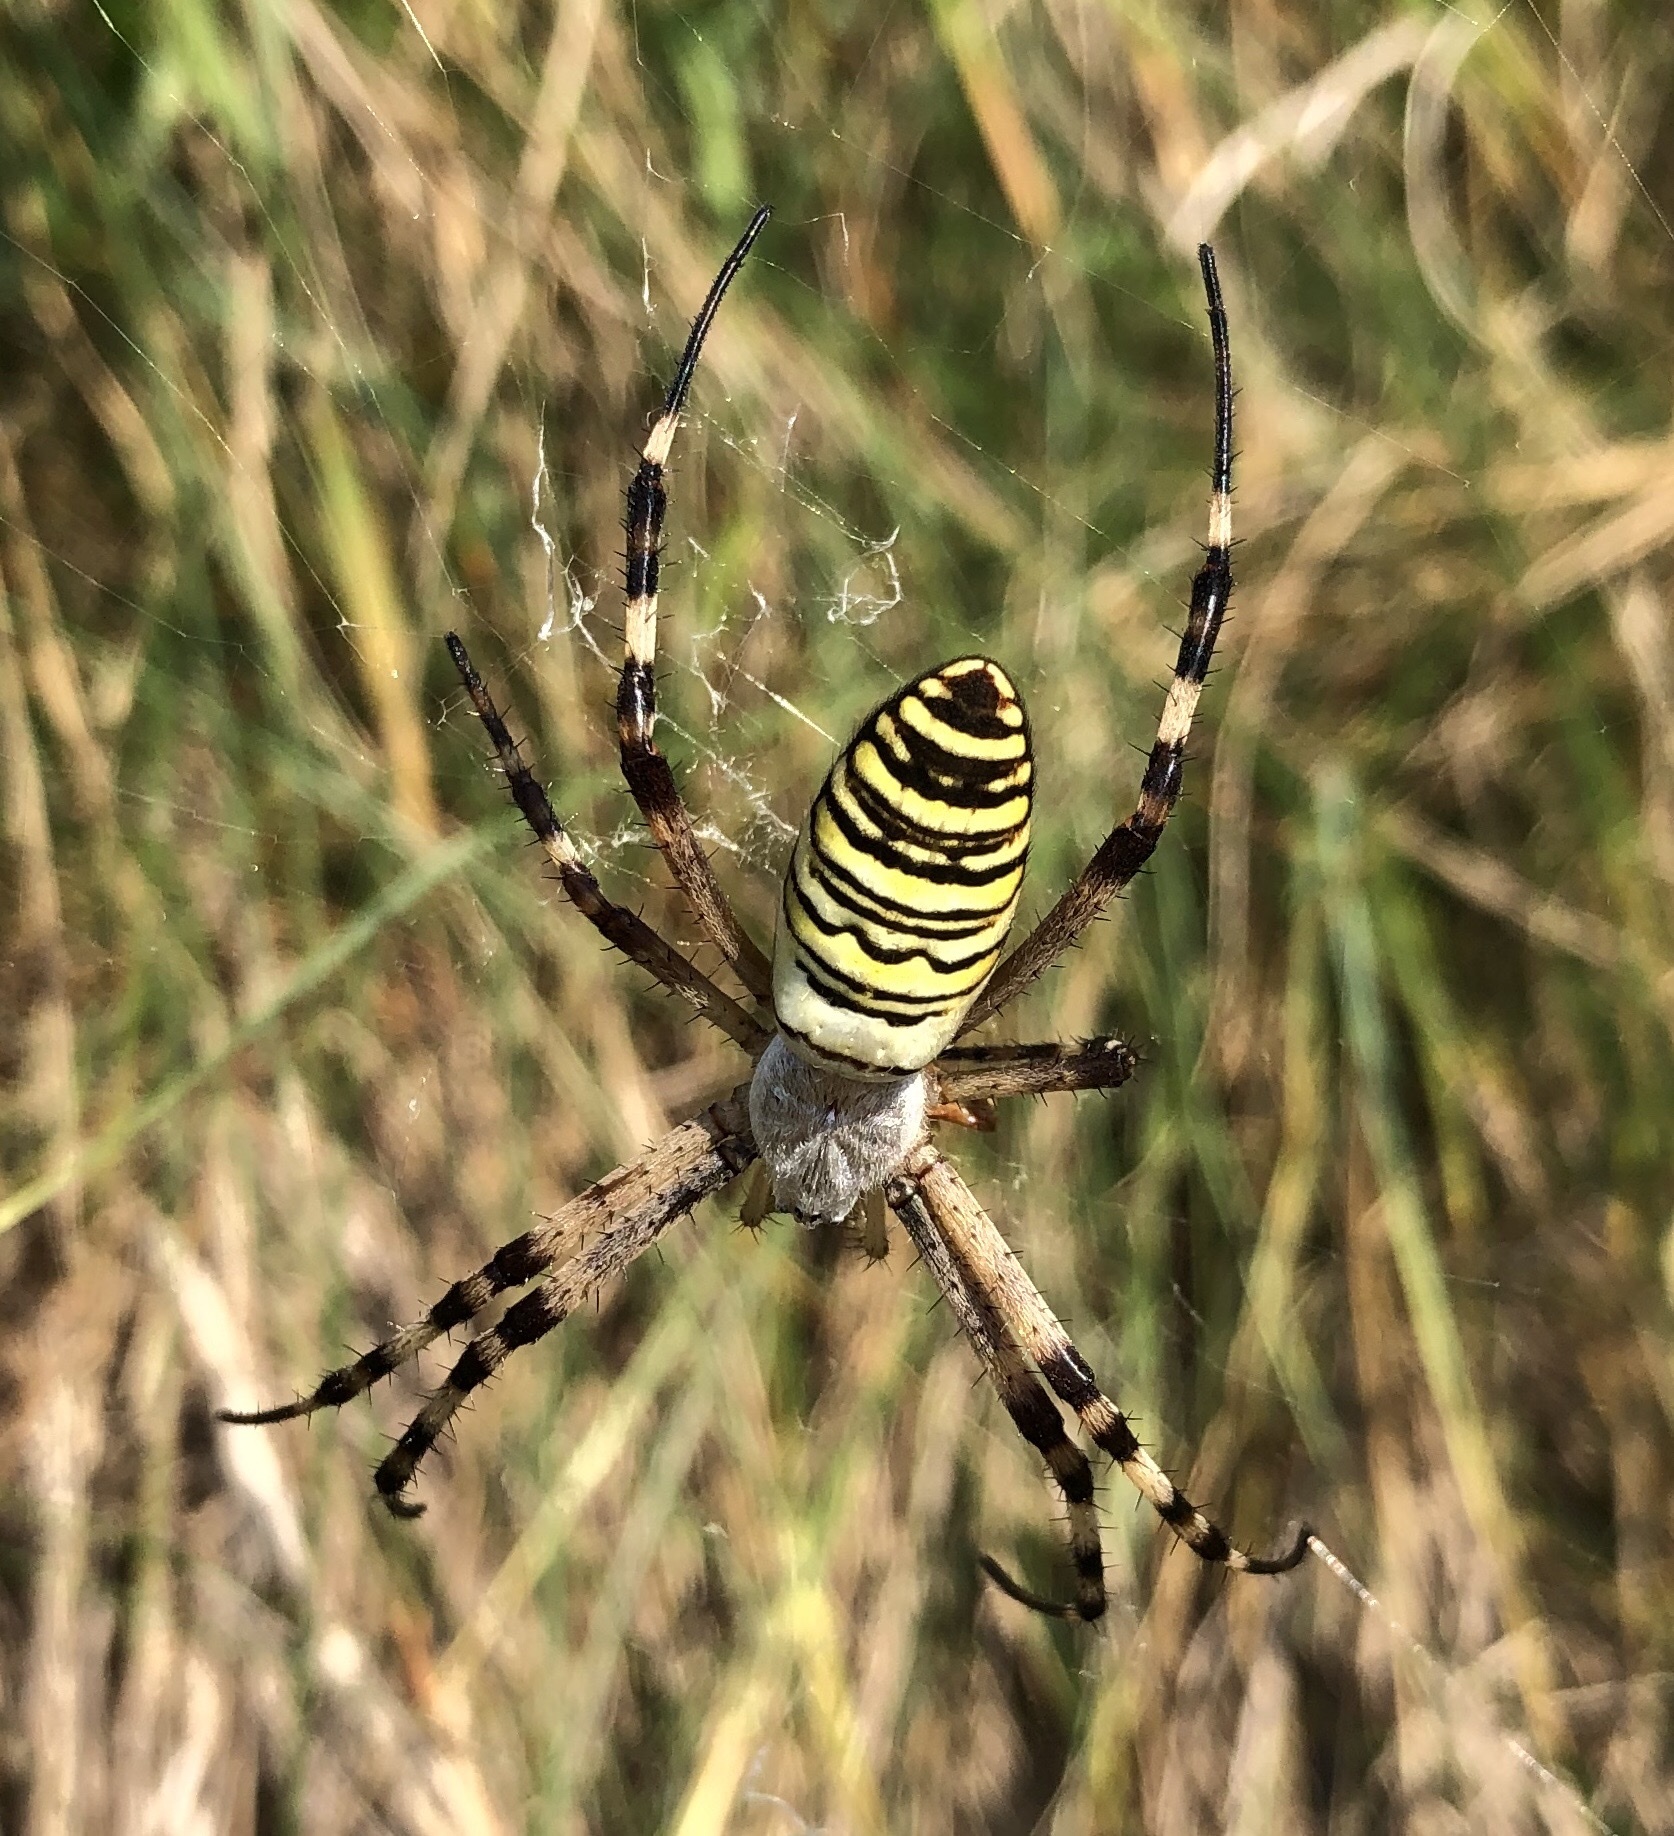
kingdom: Animalia
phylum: Arthropoda
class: Arachnida
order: Araneae
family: Araneidae
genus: Argiope
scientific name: Argiope bruennichi
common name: Wasp spider
